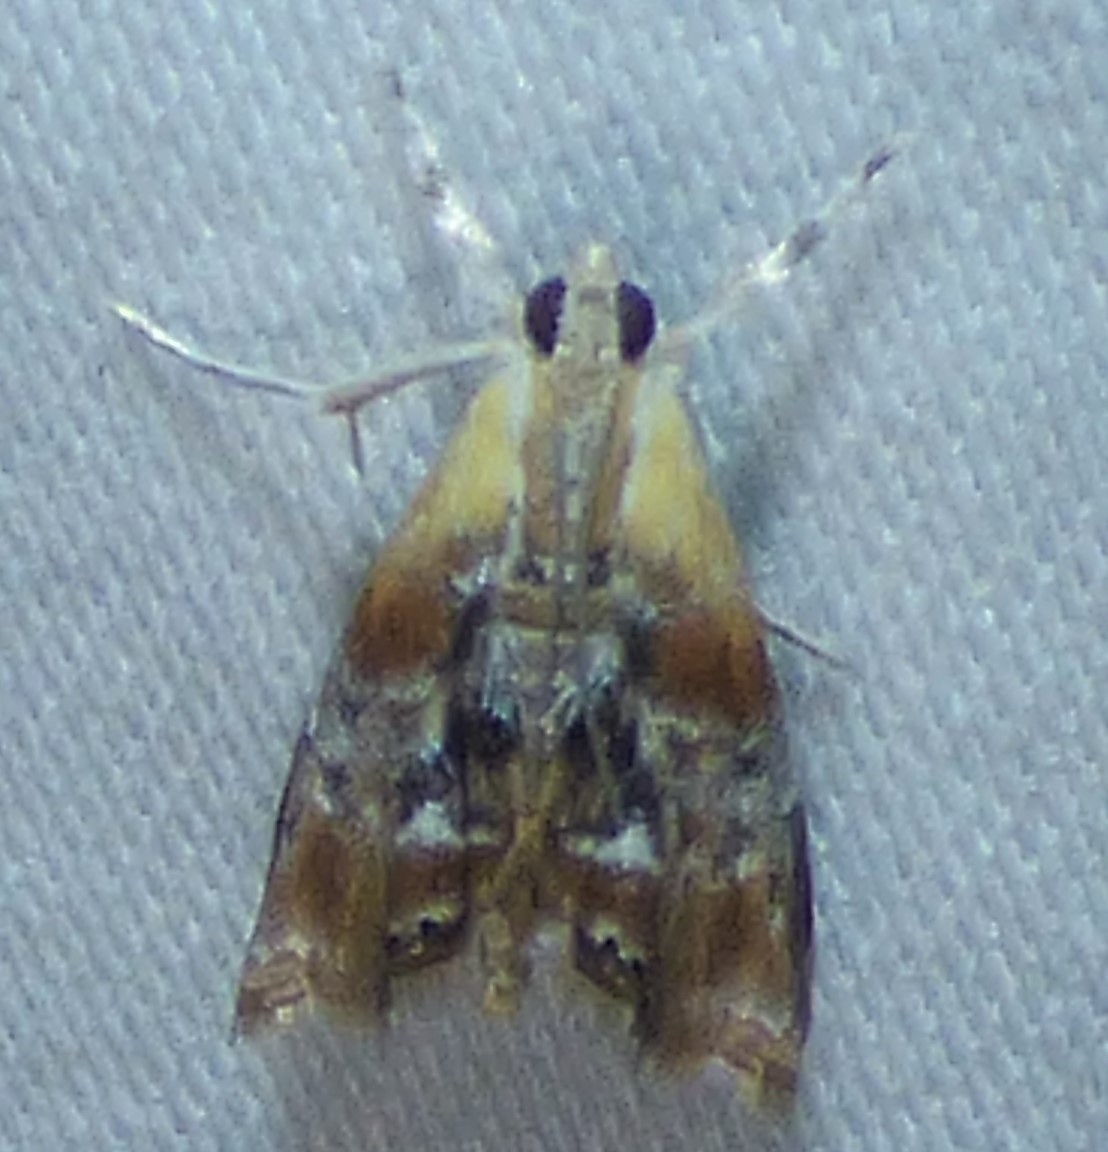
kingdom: Animalia
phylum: Arthropoda
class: Insecta
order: Lepidoptera
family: Crambidae
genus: Dicymolomia
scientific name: Dicymolomia julianalis
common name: Julia's dicymolomia moth
